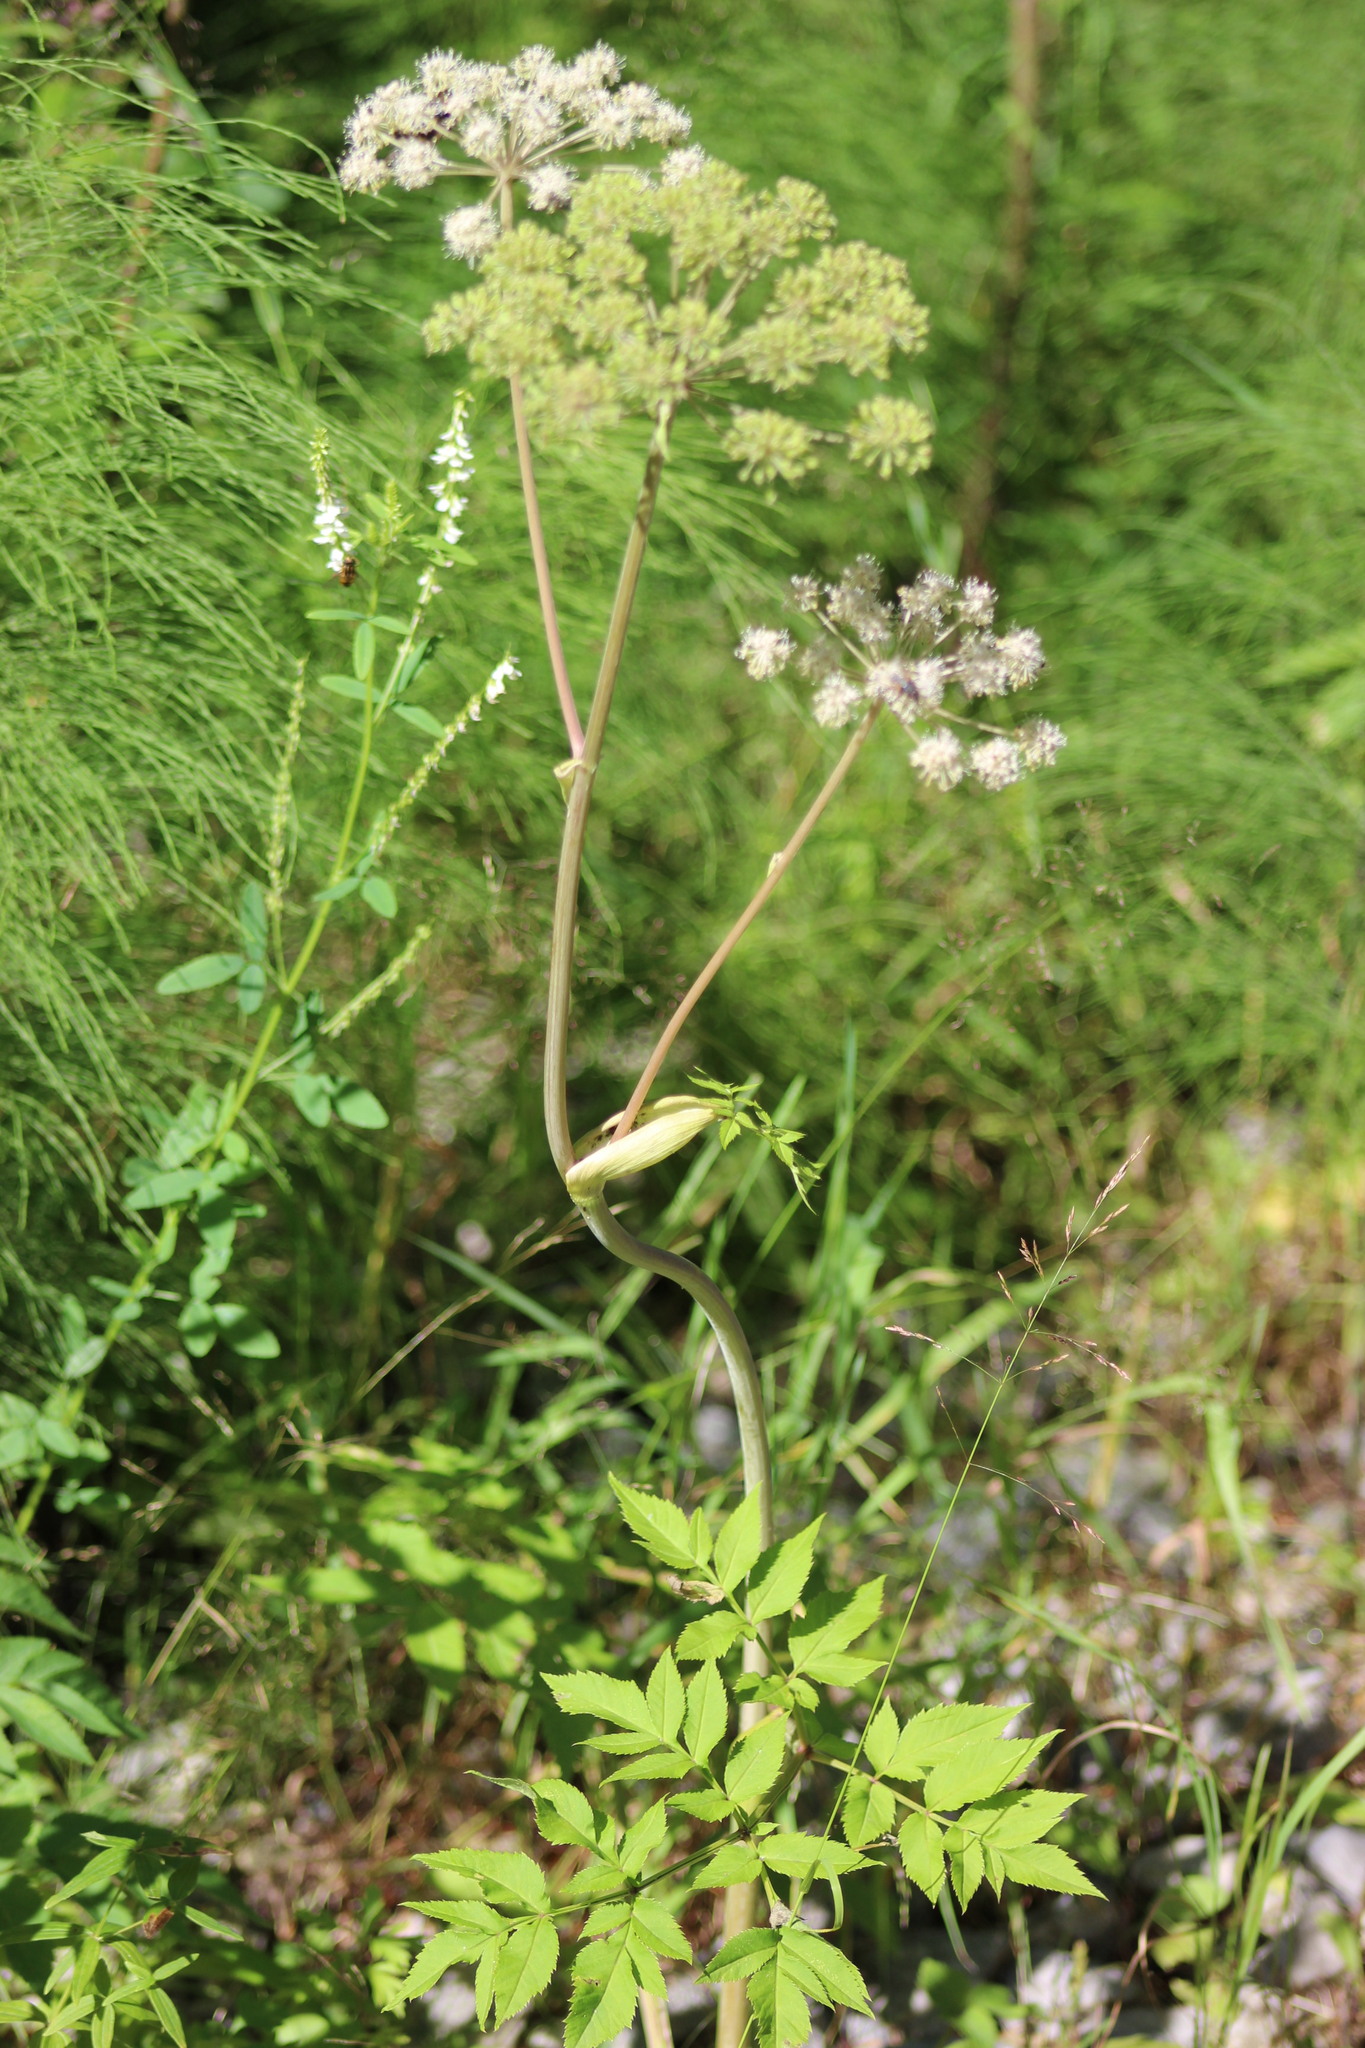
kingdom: Plantae
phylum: Tracheophyta
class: Magnoliopsida
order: Apiales
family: Apiaceae
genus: Angelica
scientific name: Angelica sylvestris
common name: Wild angelica
